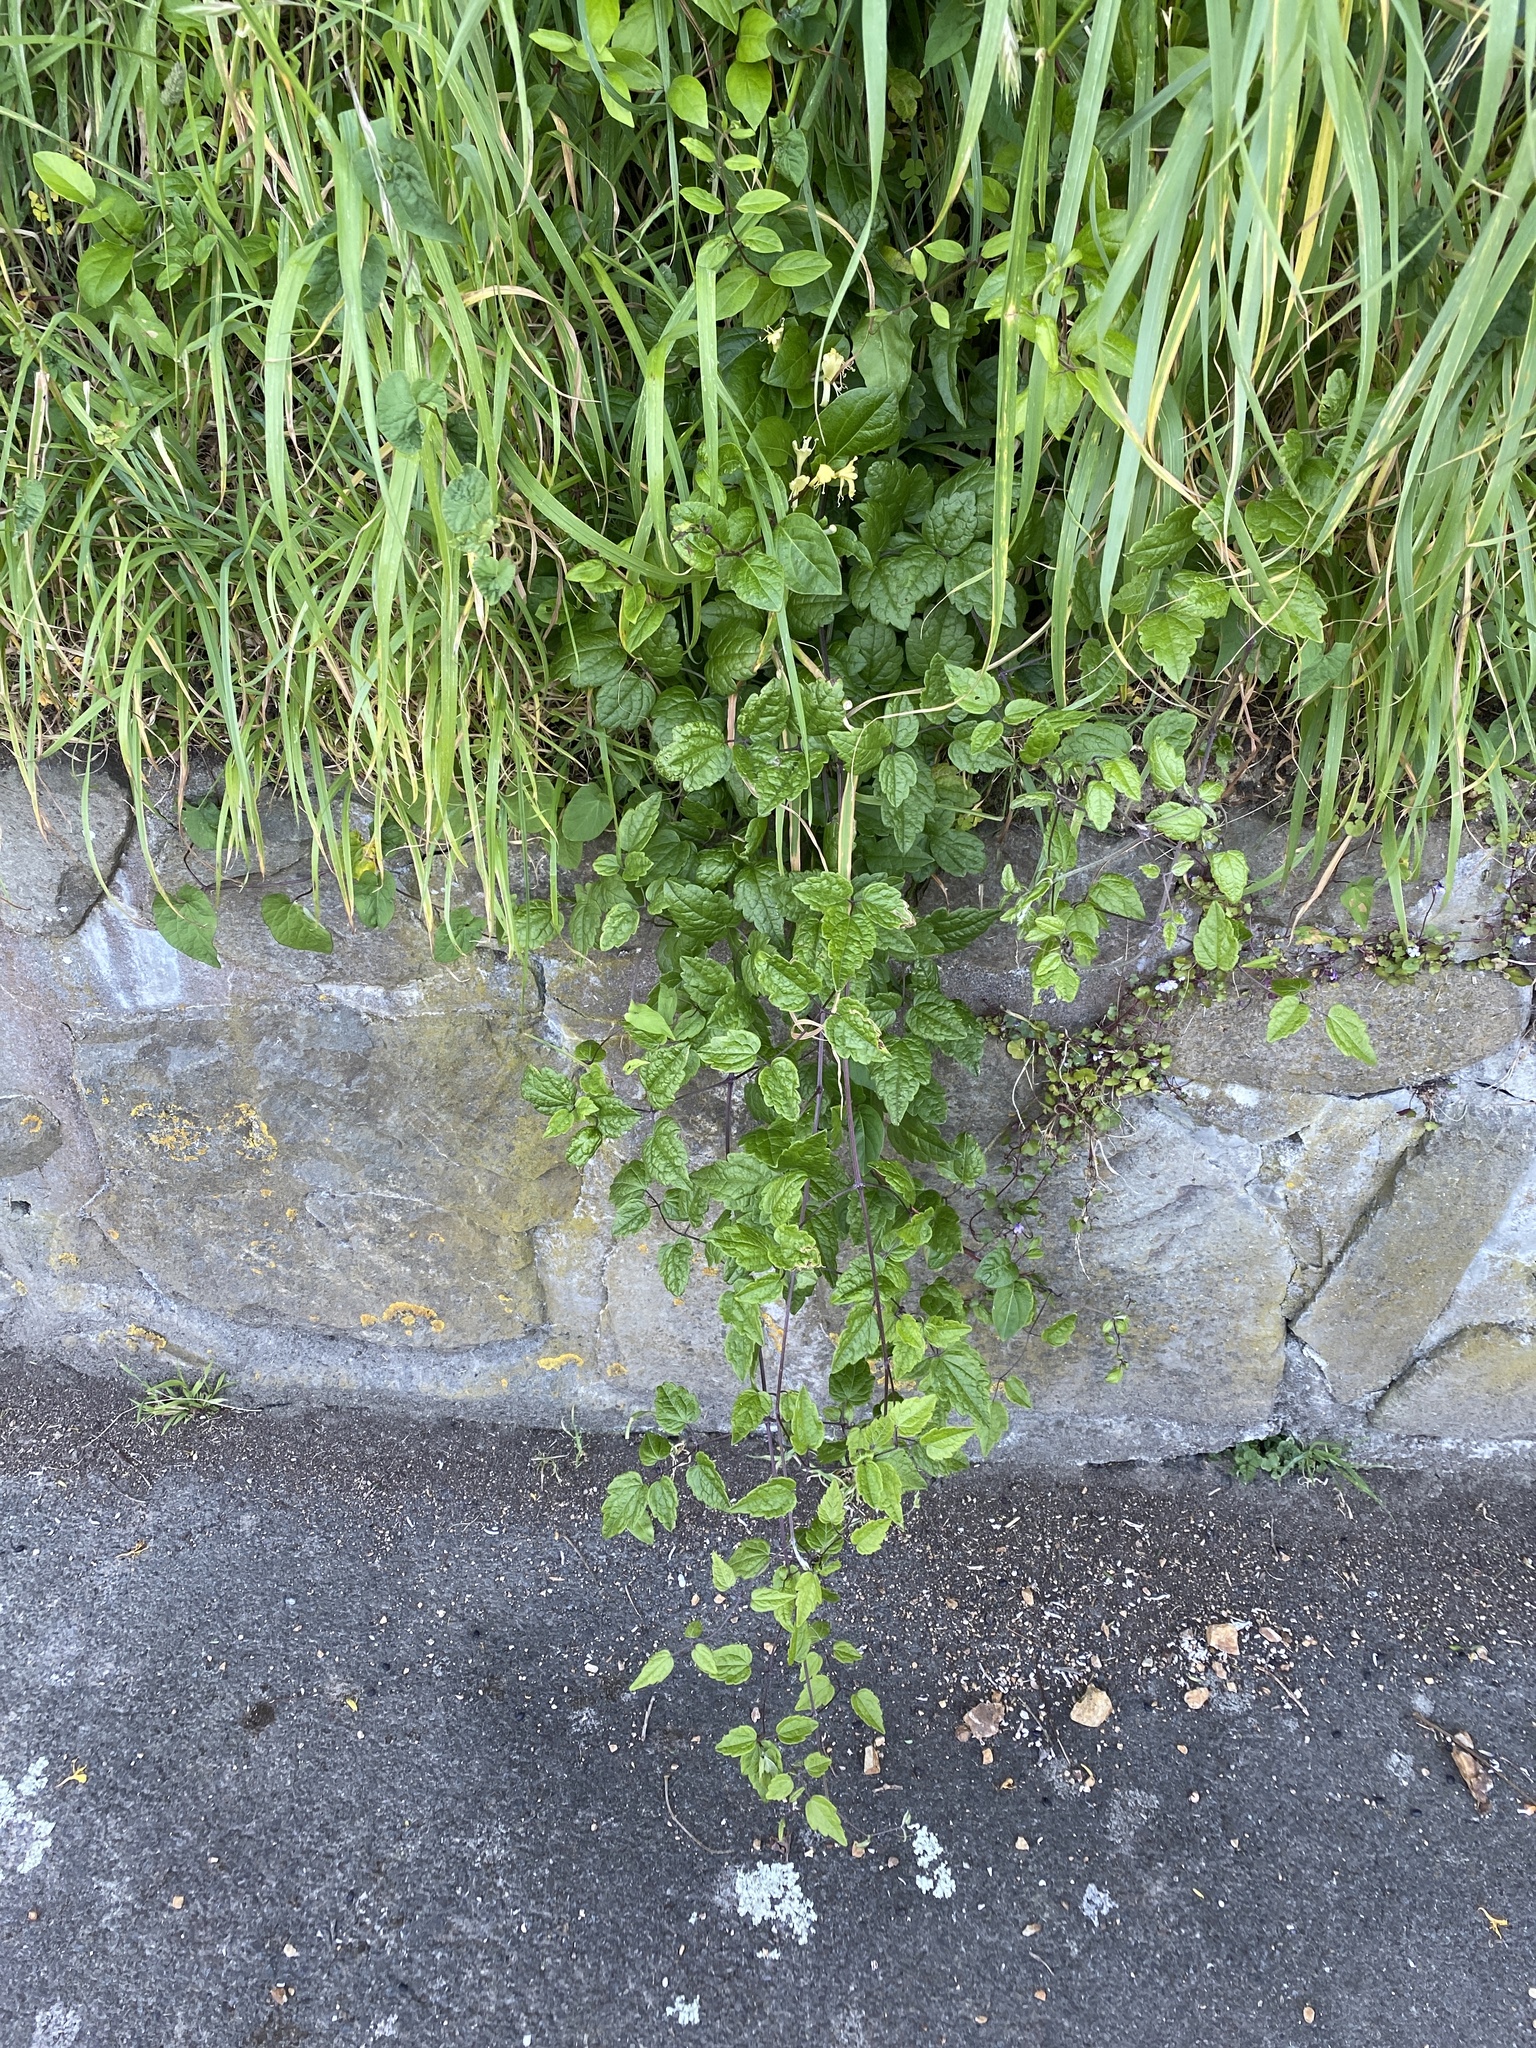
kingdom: Plantae
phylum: Tracheophyta
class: Magnoliopsida
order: Ranunculales
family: Ranunculaceae
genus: Clematis
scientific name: Clematis vitalba
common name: Evergreen clematis
